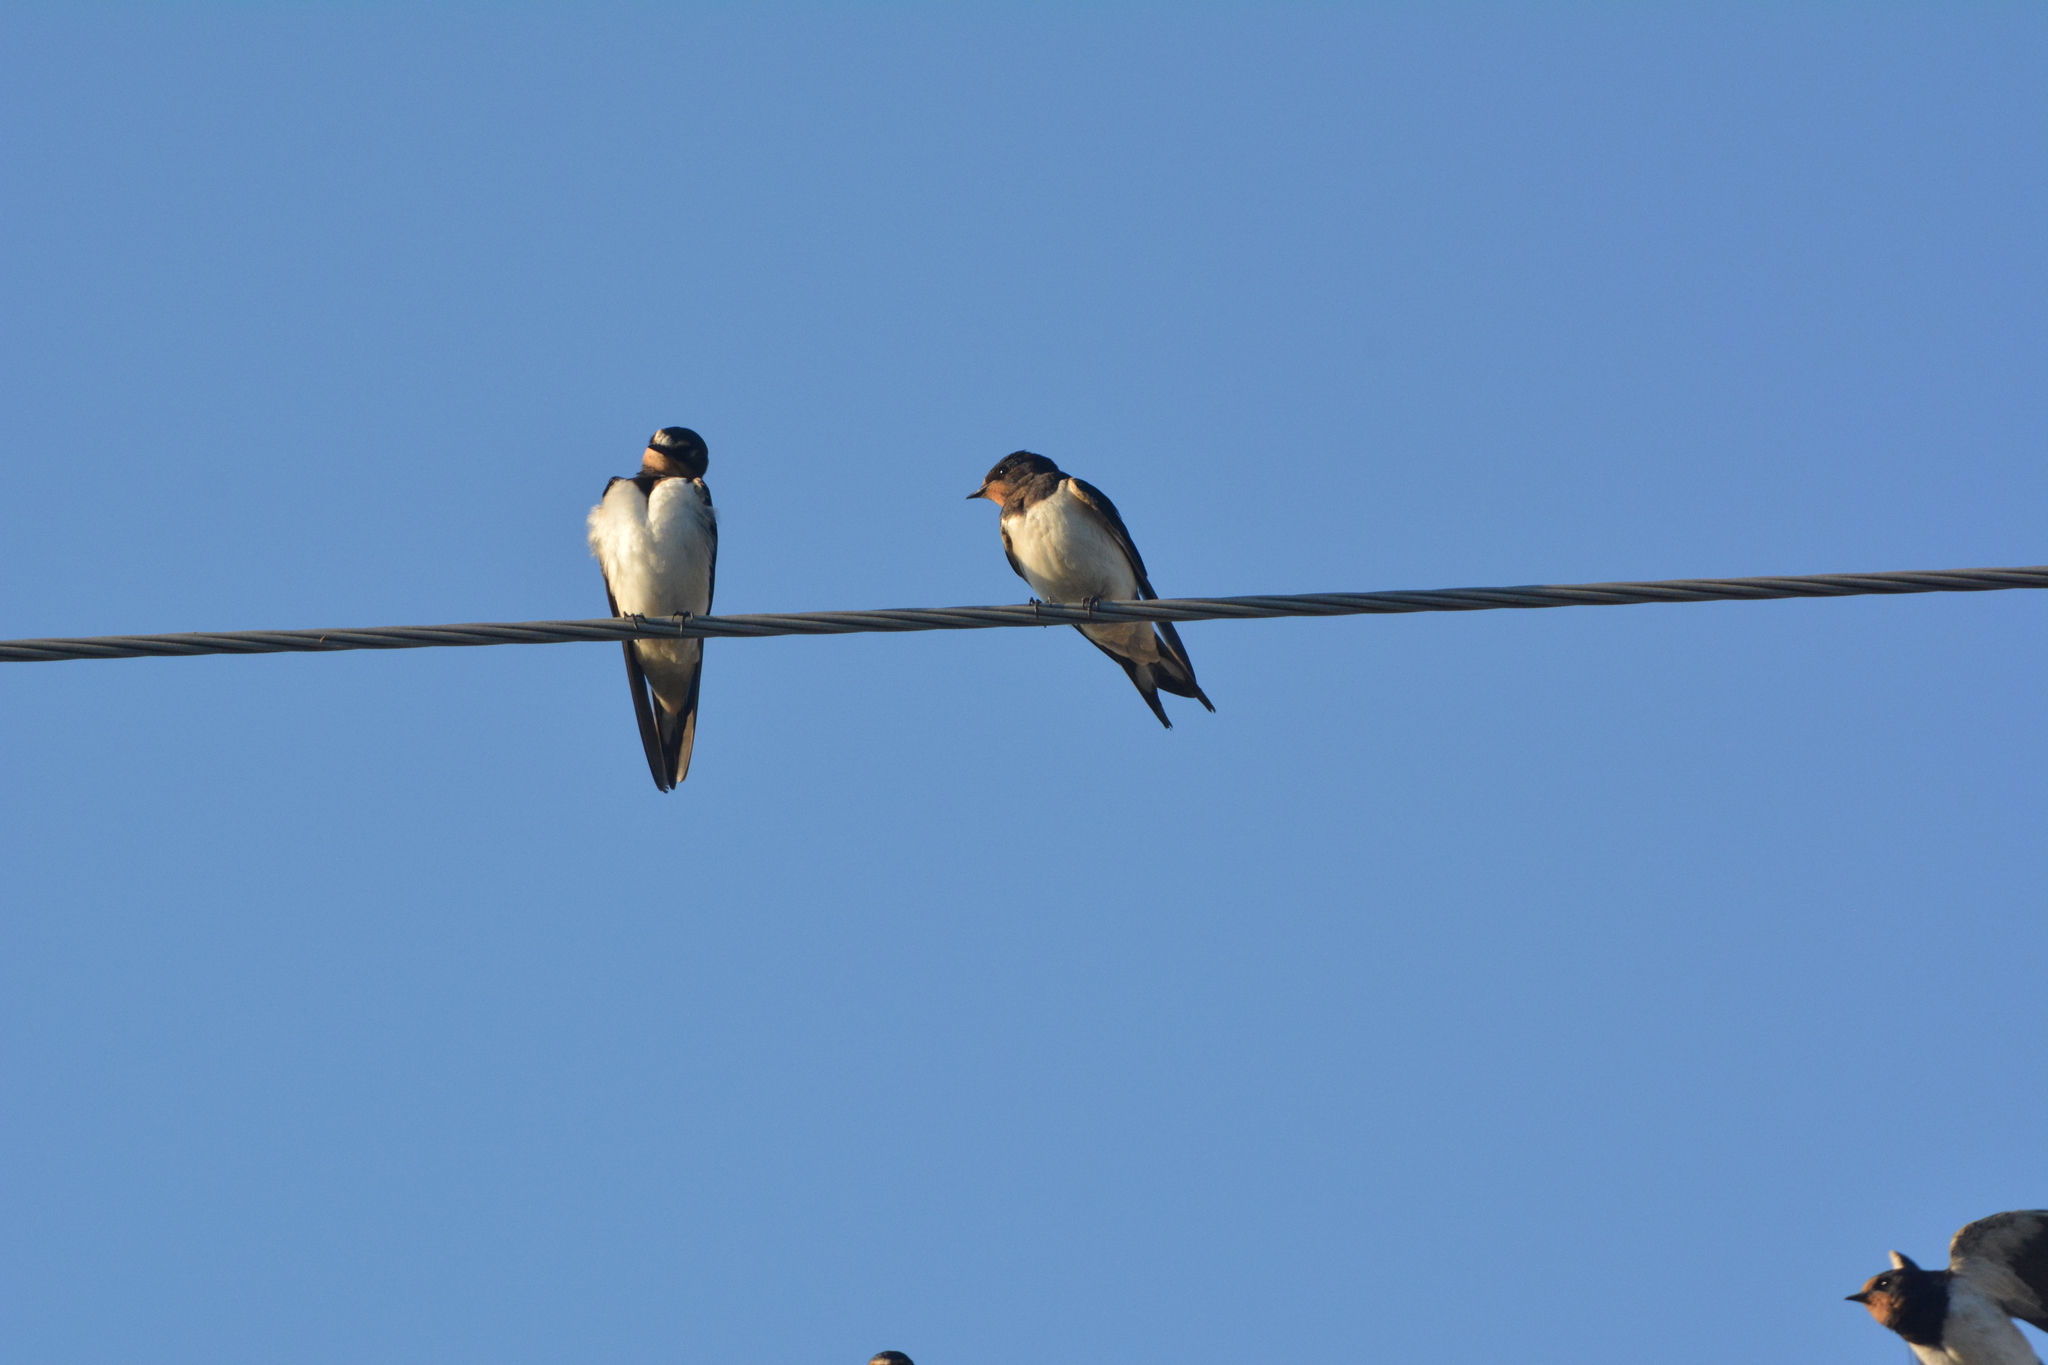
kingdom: Animalia
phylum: Chordata
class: Aves
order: Passeriformes
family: Hirundinidae
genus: Hirundo
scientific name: Hirundo rustica
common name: Barn swallow
